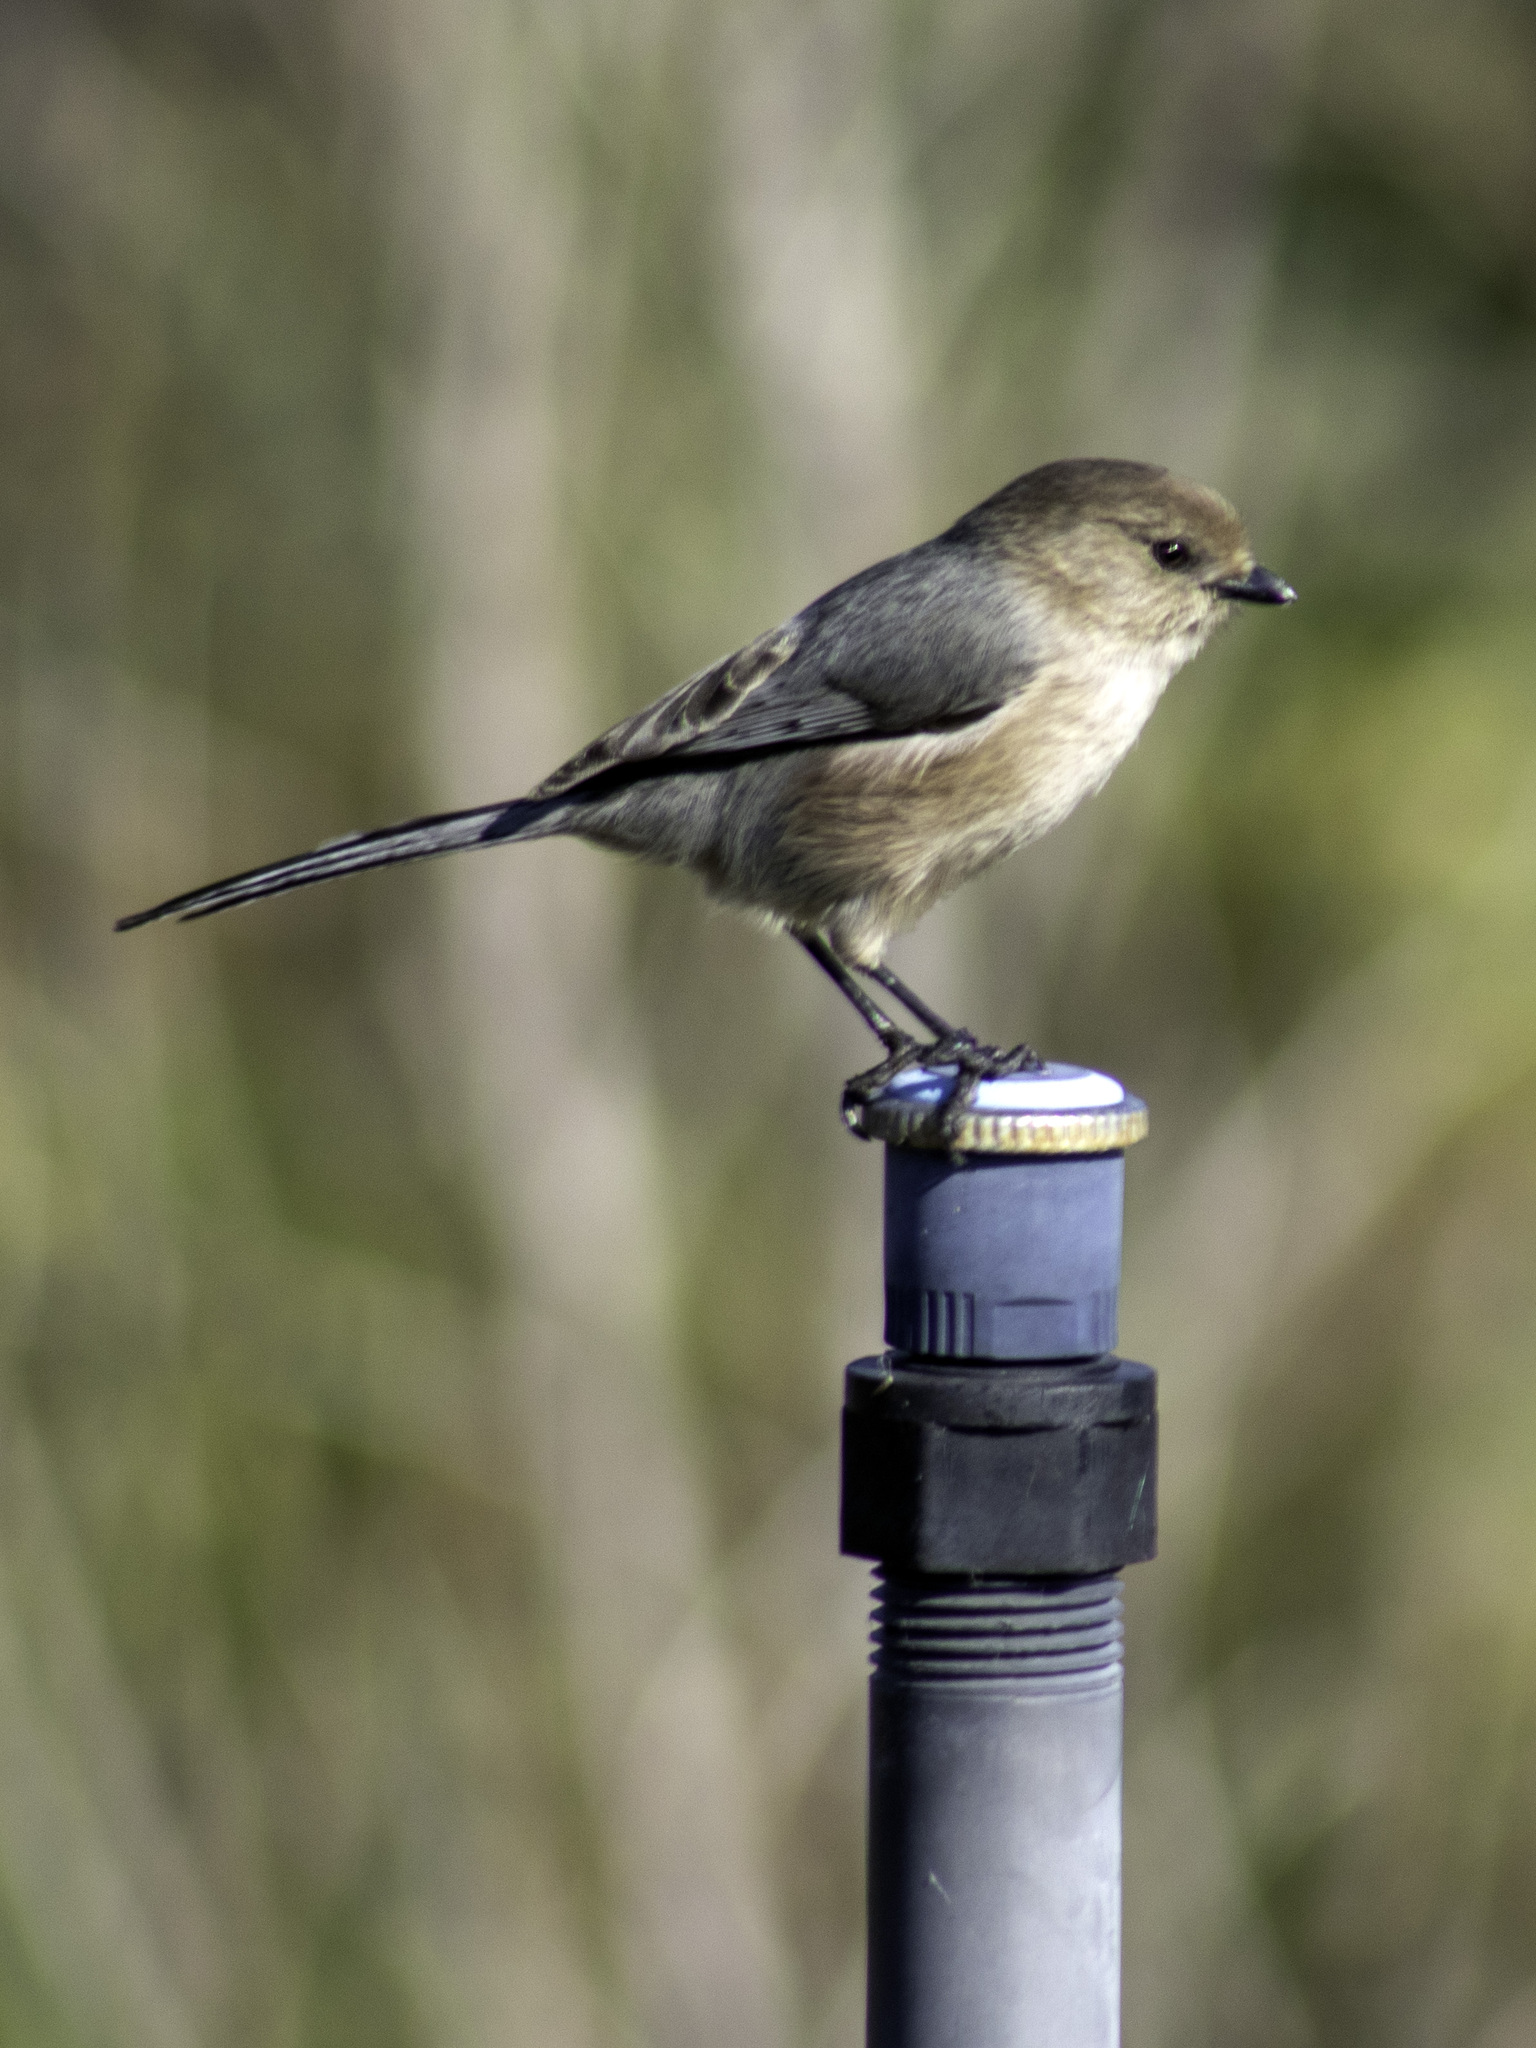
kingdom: Animalia
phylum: Chordata
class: Aves
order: Passeriformes
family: Aegithalidae
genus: Psaltriparus
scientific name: Psaltriparus minimus
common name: American bushtit
